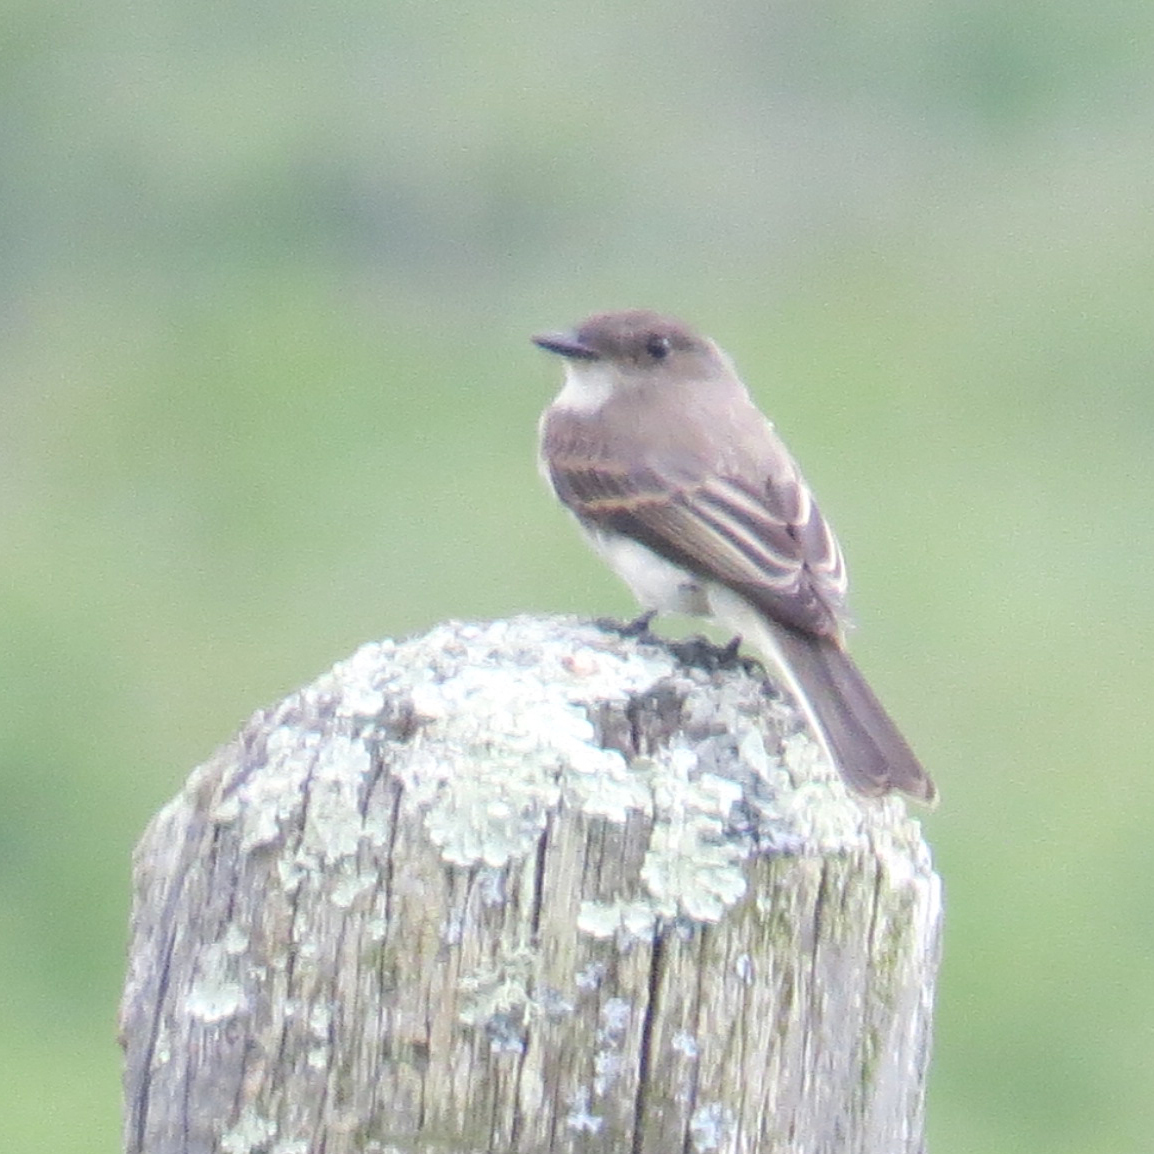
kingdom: Animalia
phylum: Chordata
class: Aves
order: Passeriformes
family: Tyrannidae
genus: Sayornis
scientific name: Sayornis phoebe
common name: Eastern phoebe
